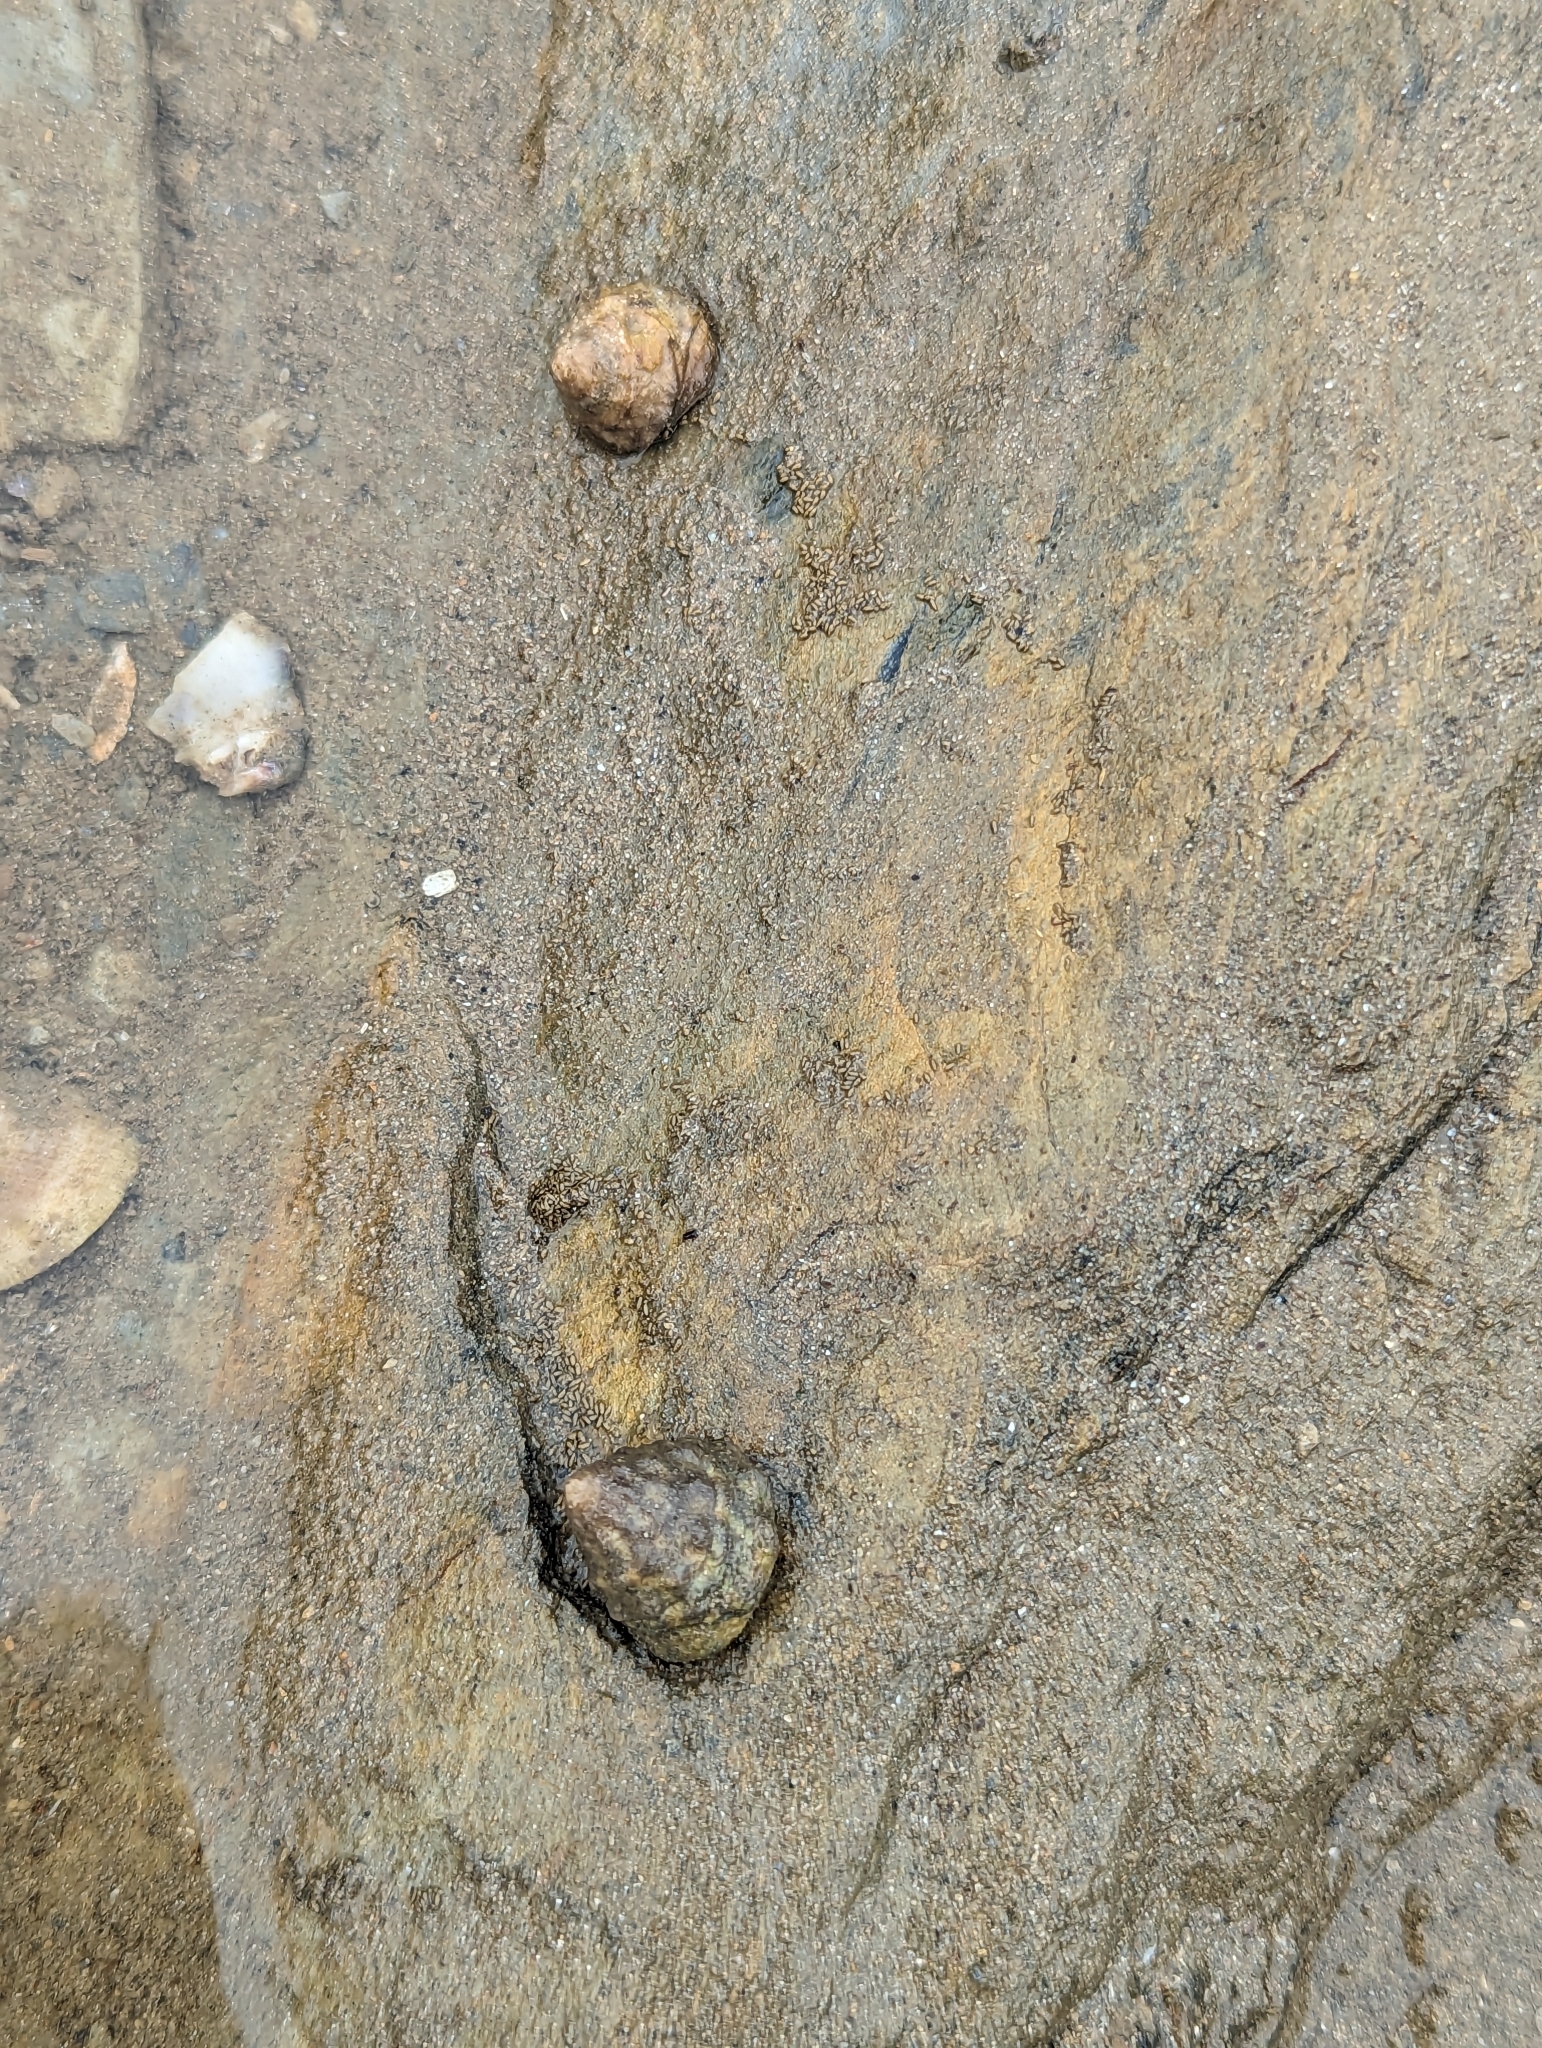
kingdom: Animalia
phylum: Mollusca
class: Gastropoda
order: Littorinimorpha
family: Littorinidae
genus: Bembicium
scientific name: Bembicium auratum
